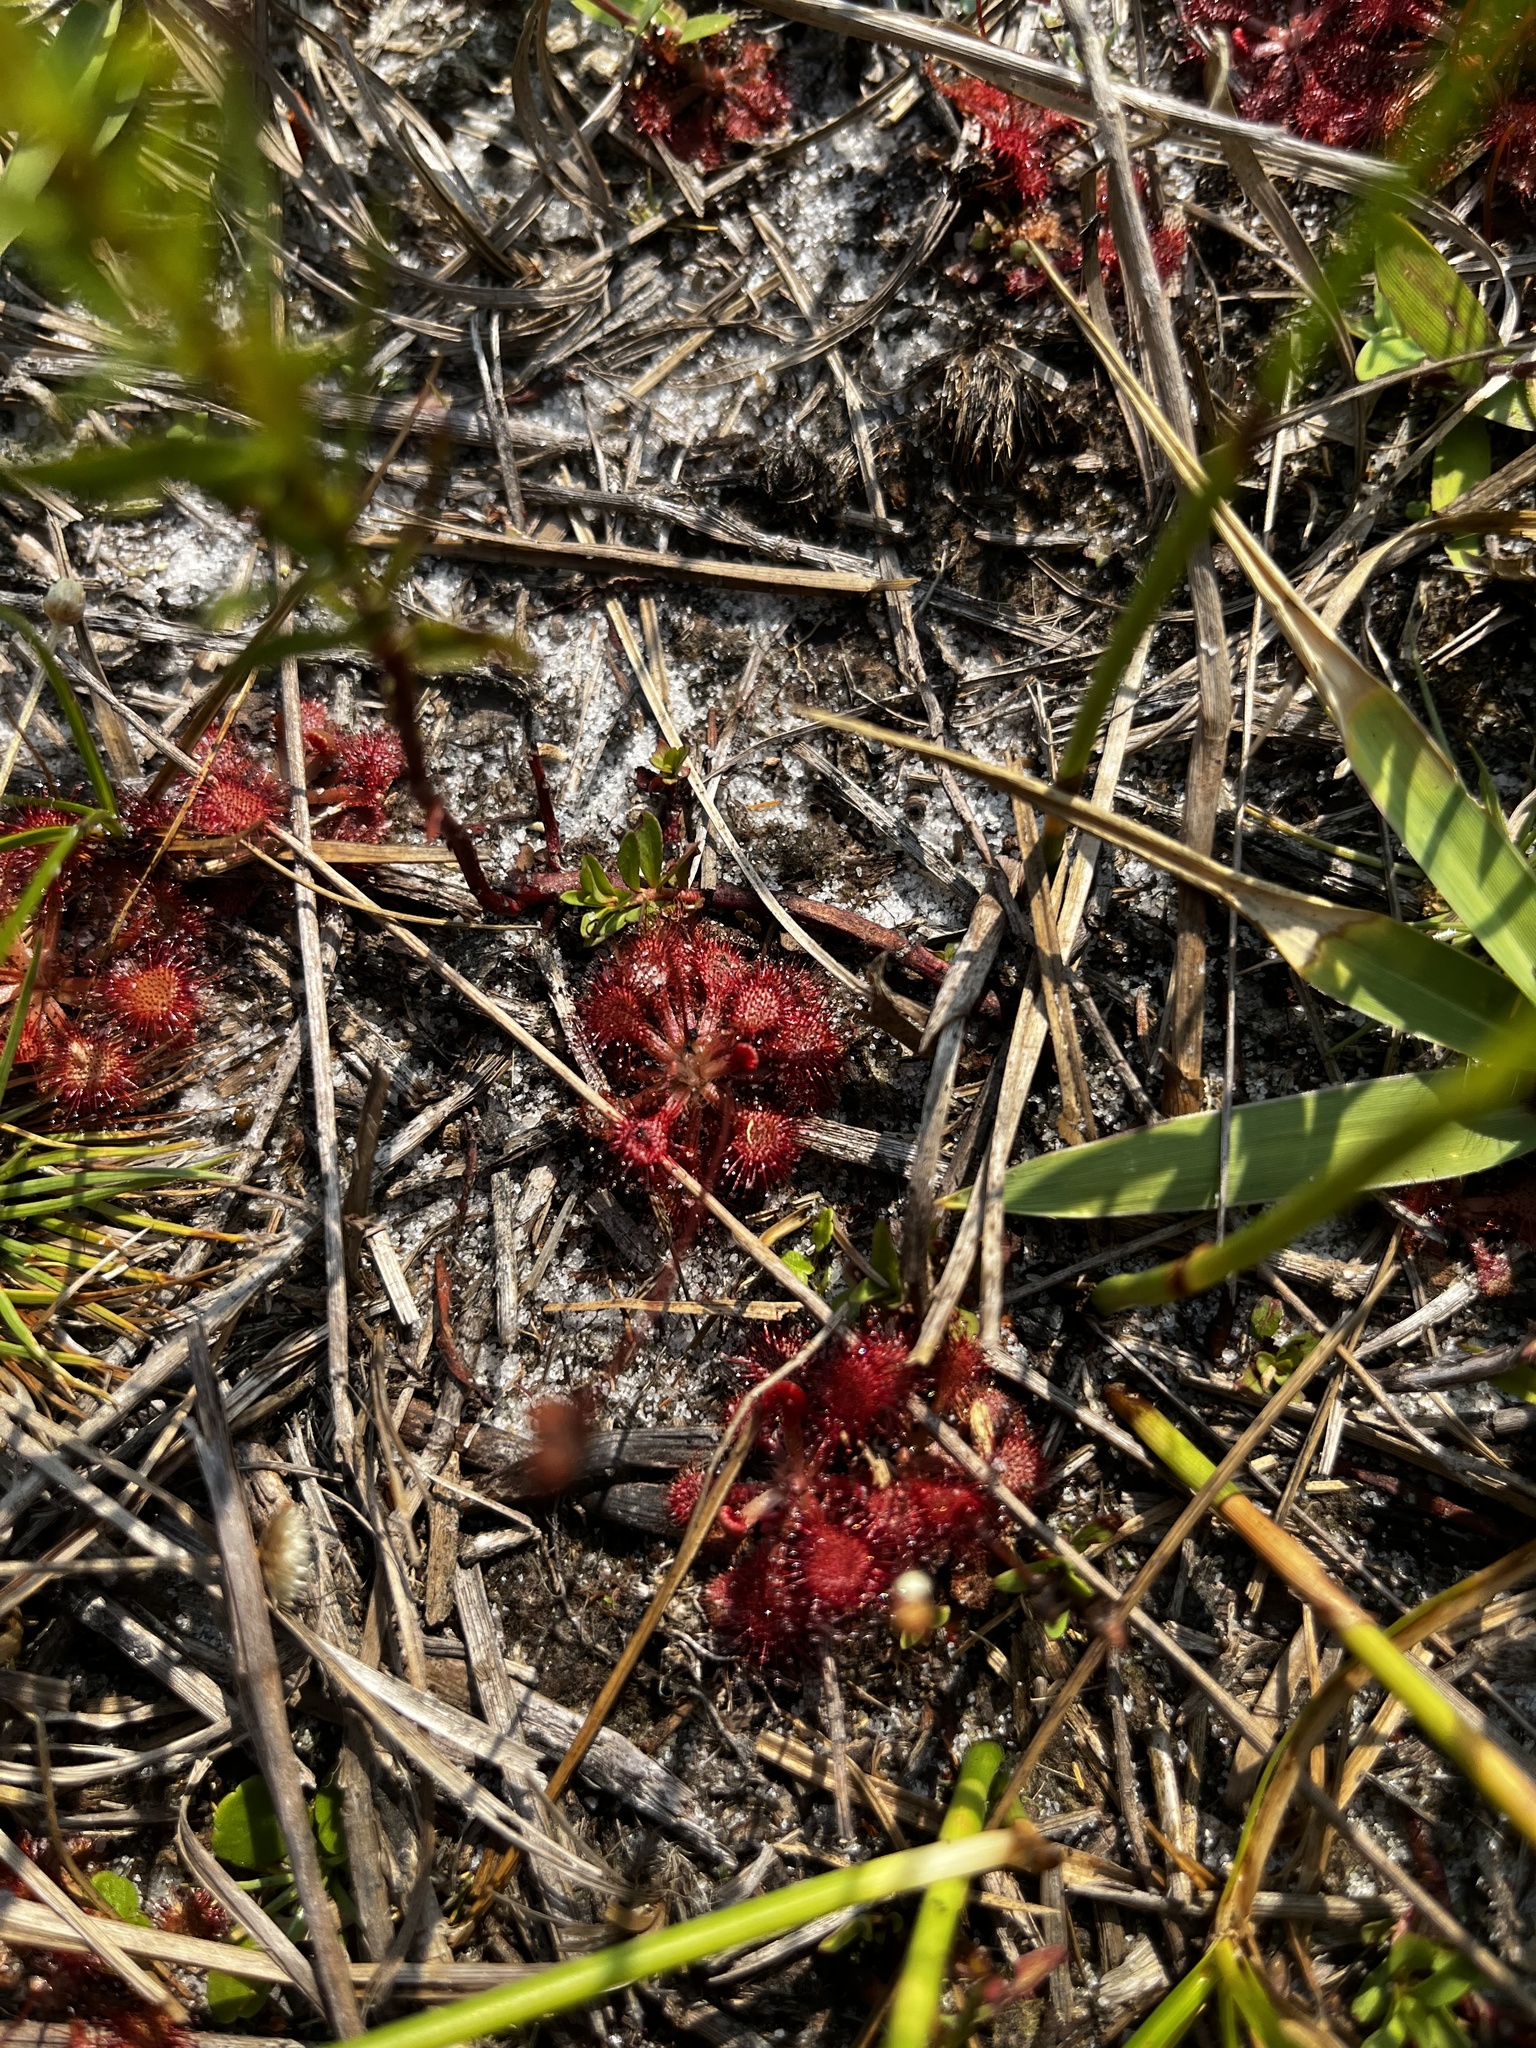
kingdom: Plantae
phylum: Tracheophyta
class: Magnoliopsida
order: Caryophyllales
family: Droseraceae
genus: Drosera
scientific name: Drosera capillaris
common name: Pink sundew
